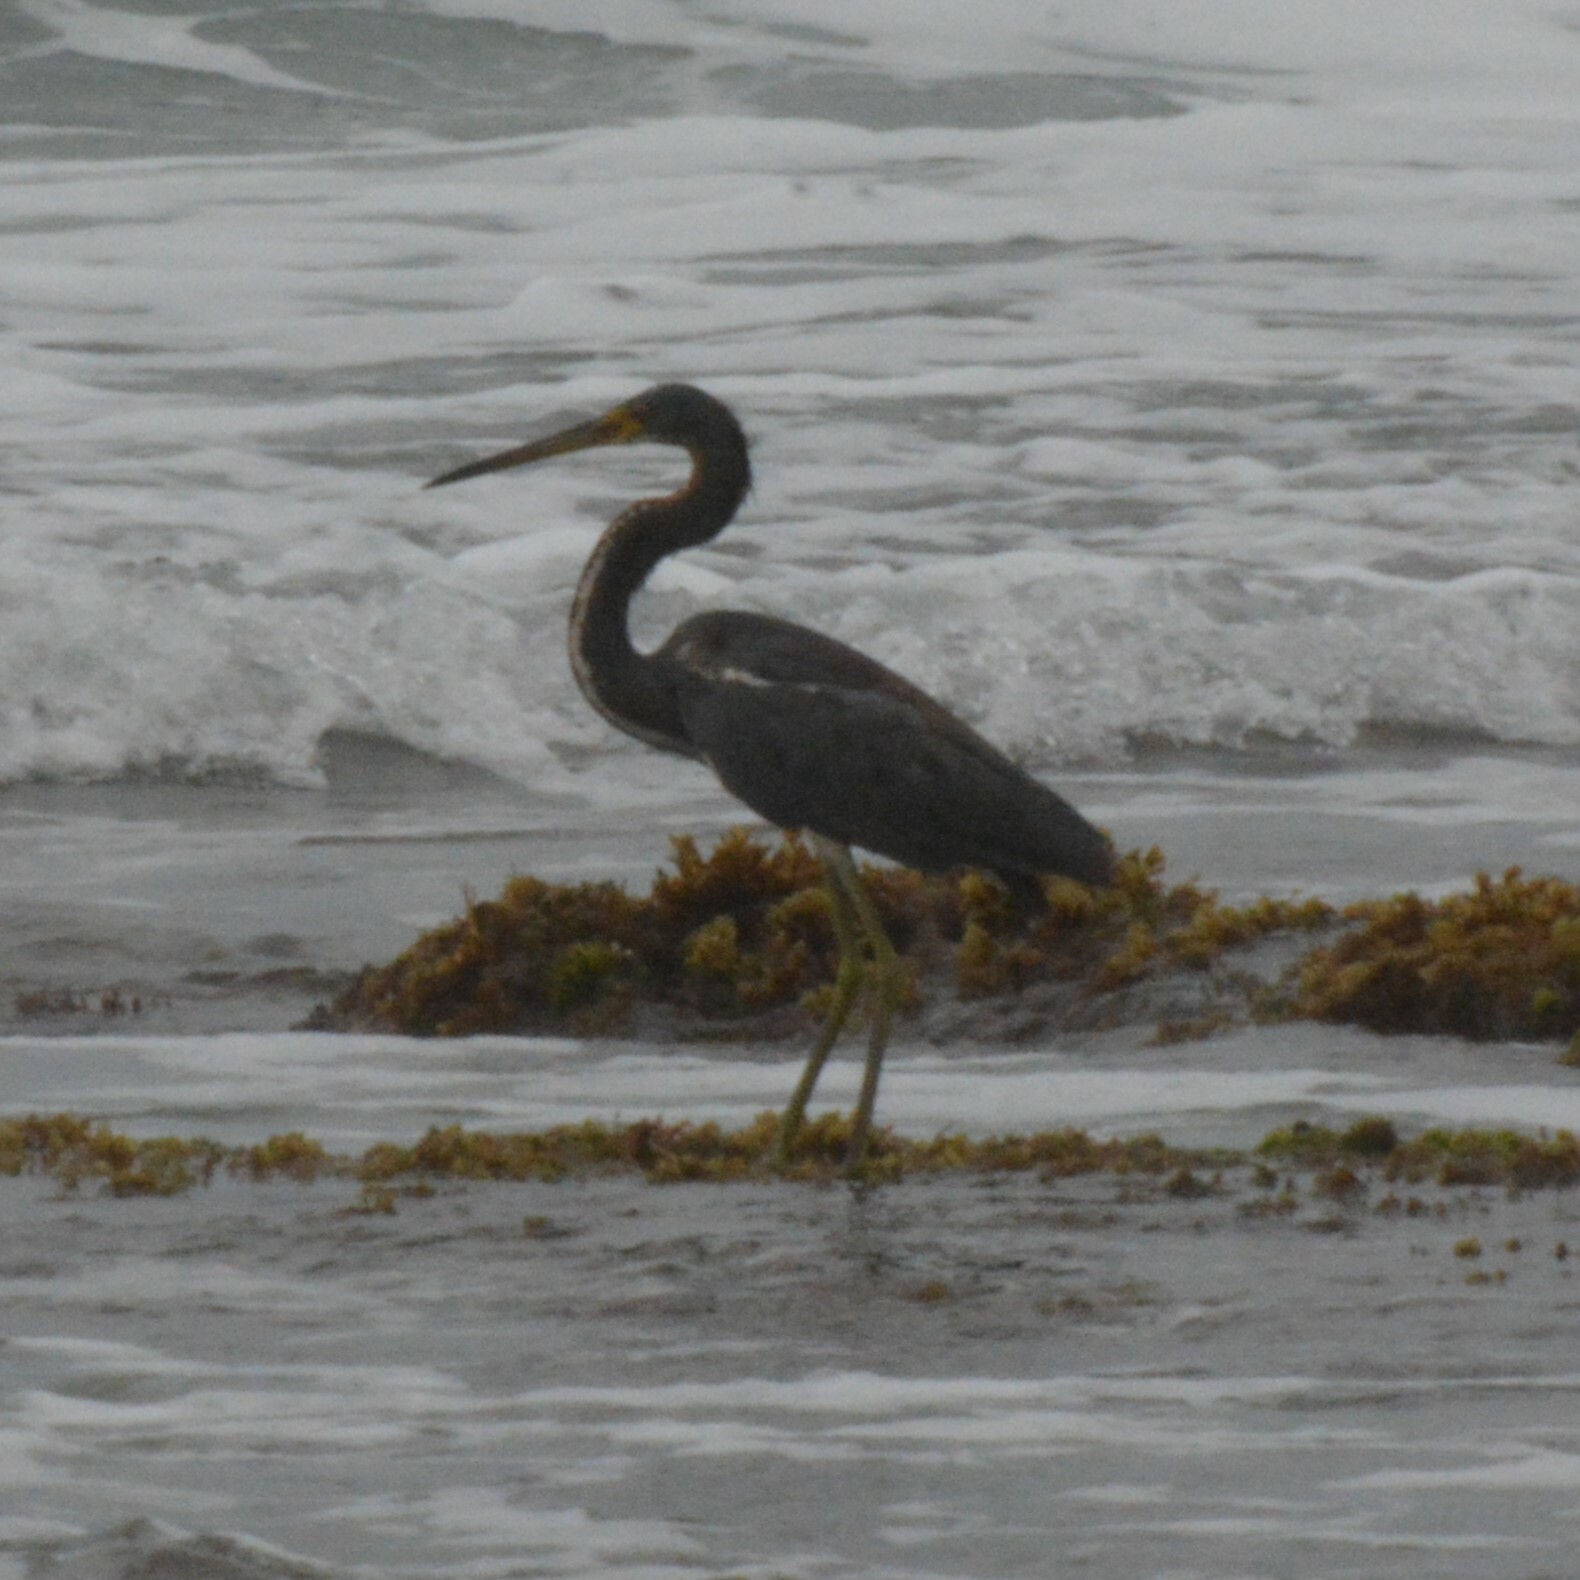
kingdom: Animalia
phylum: Chordata
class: Aves
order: Pelecaniformes
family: Ardeidae
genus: Egretta
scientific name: Egretta tricolor
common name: Tricolored heron
